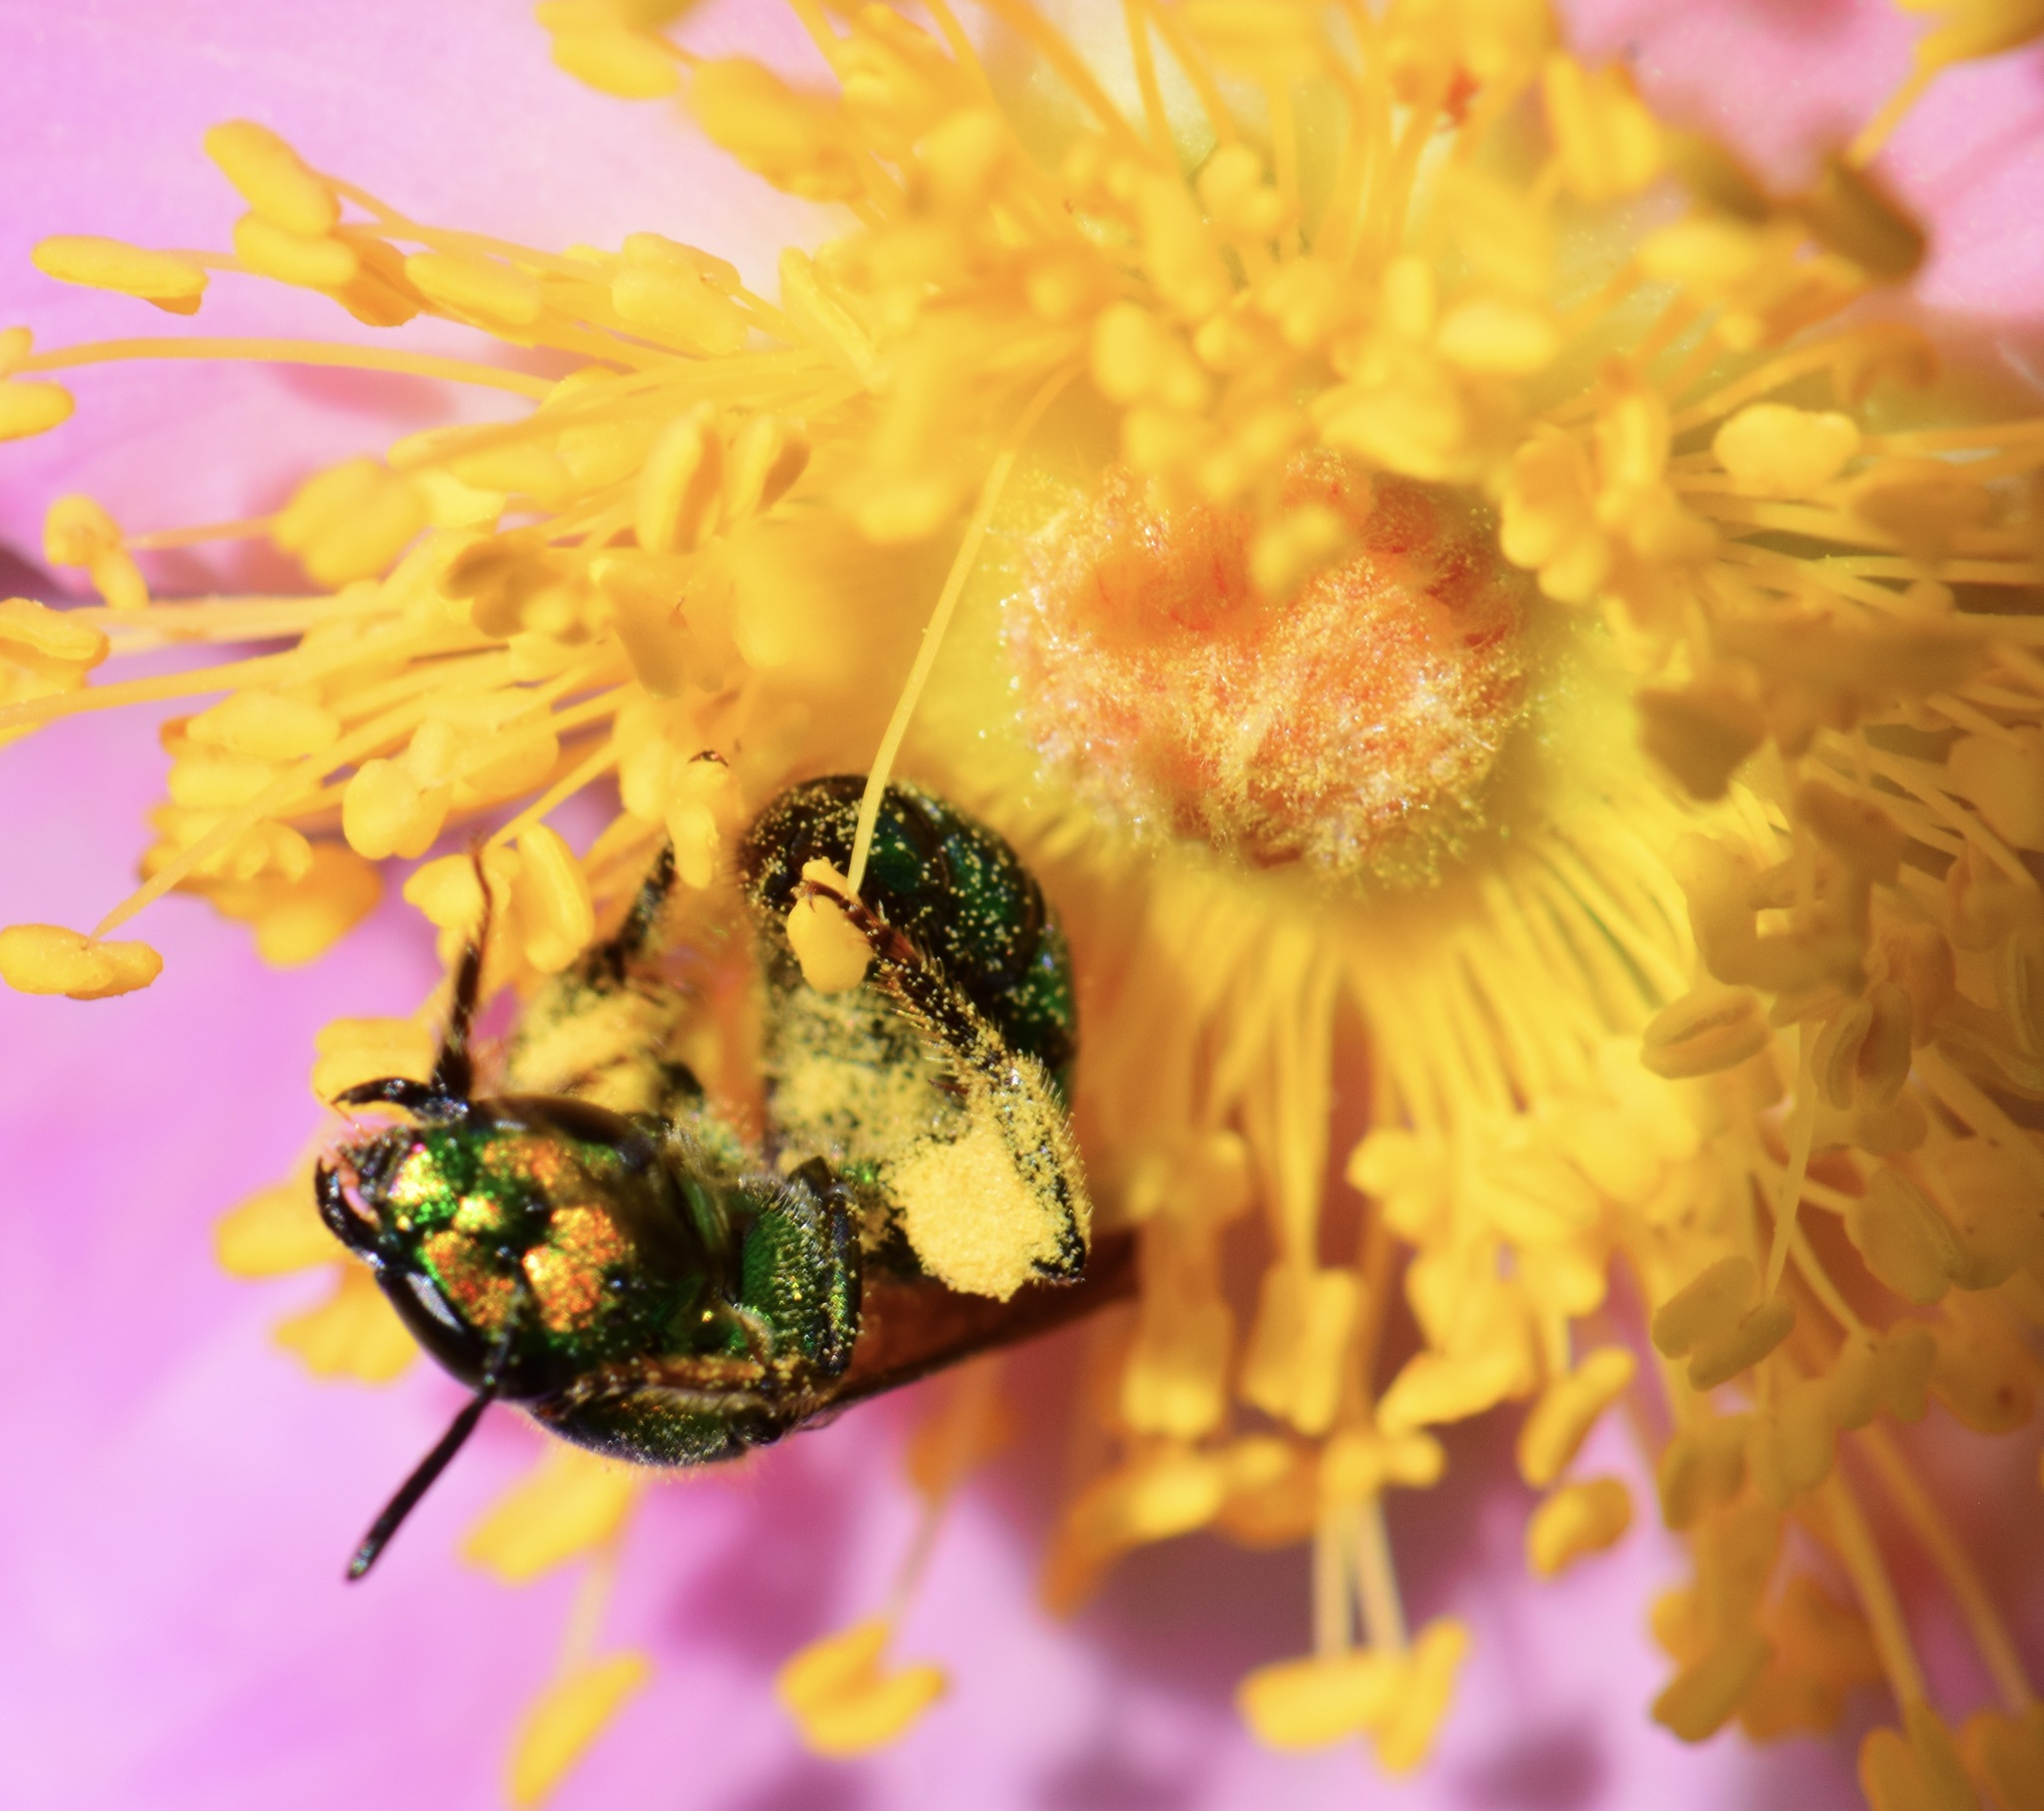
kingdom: Animalia
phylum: Arthropoda
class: Insecta
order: Hymenoptera
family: Halictidae
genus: Augochlora
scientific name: Augochlora pura
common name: Pure green sweat bee
